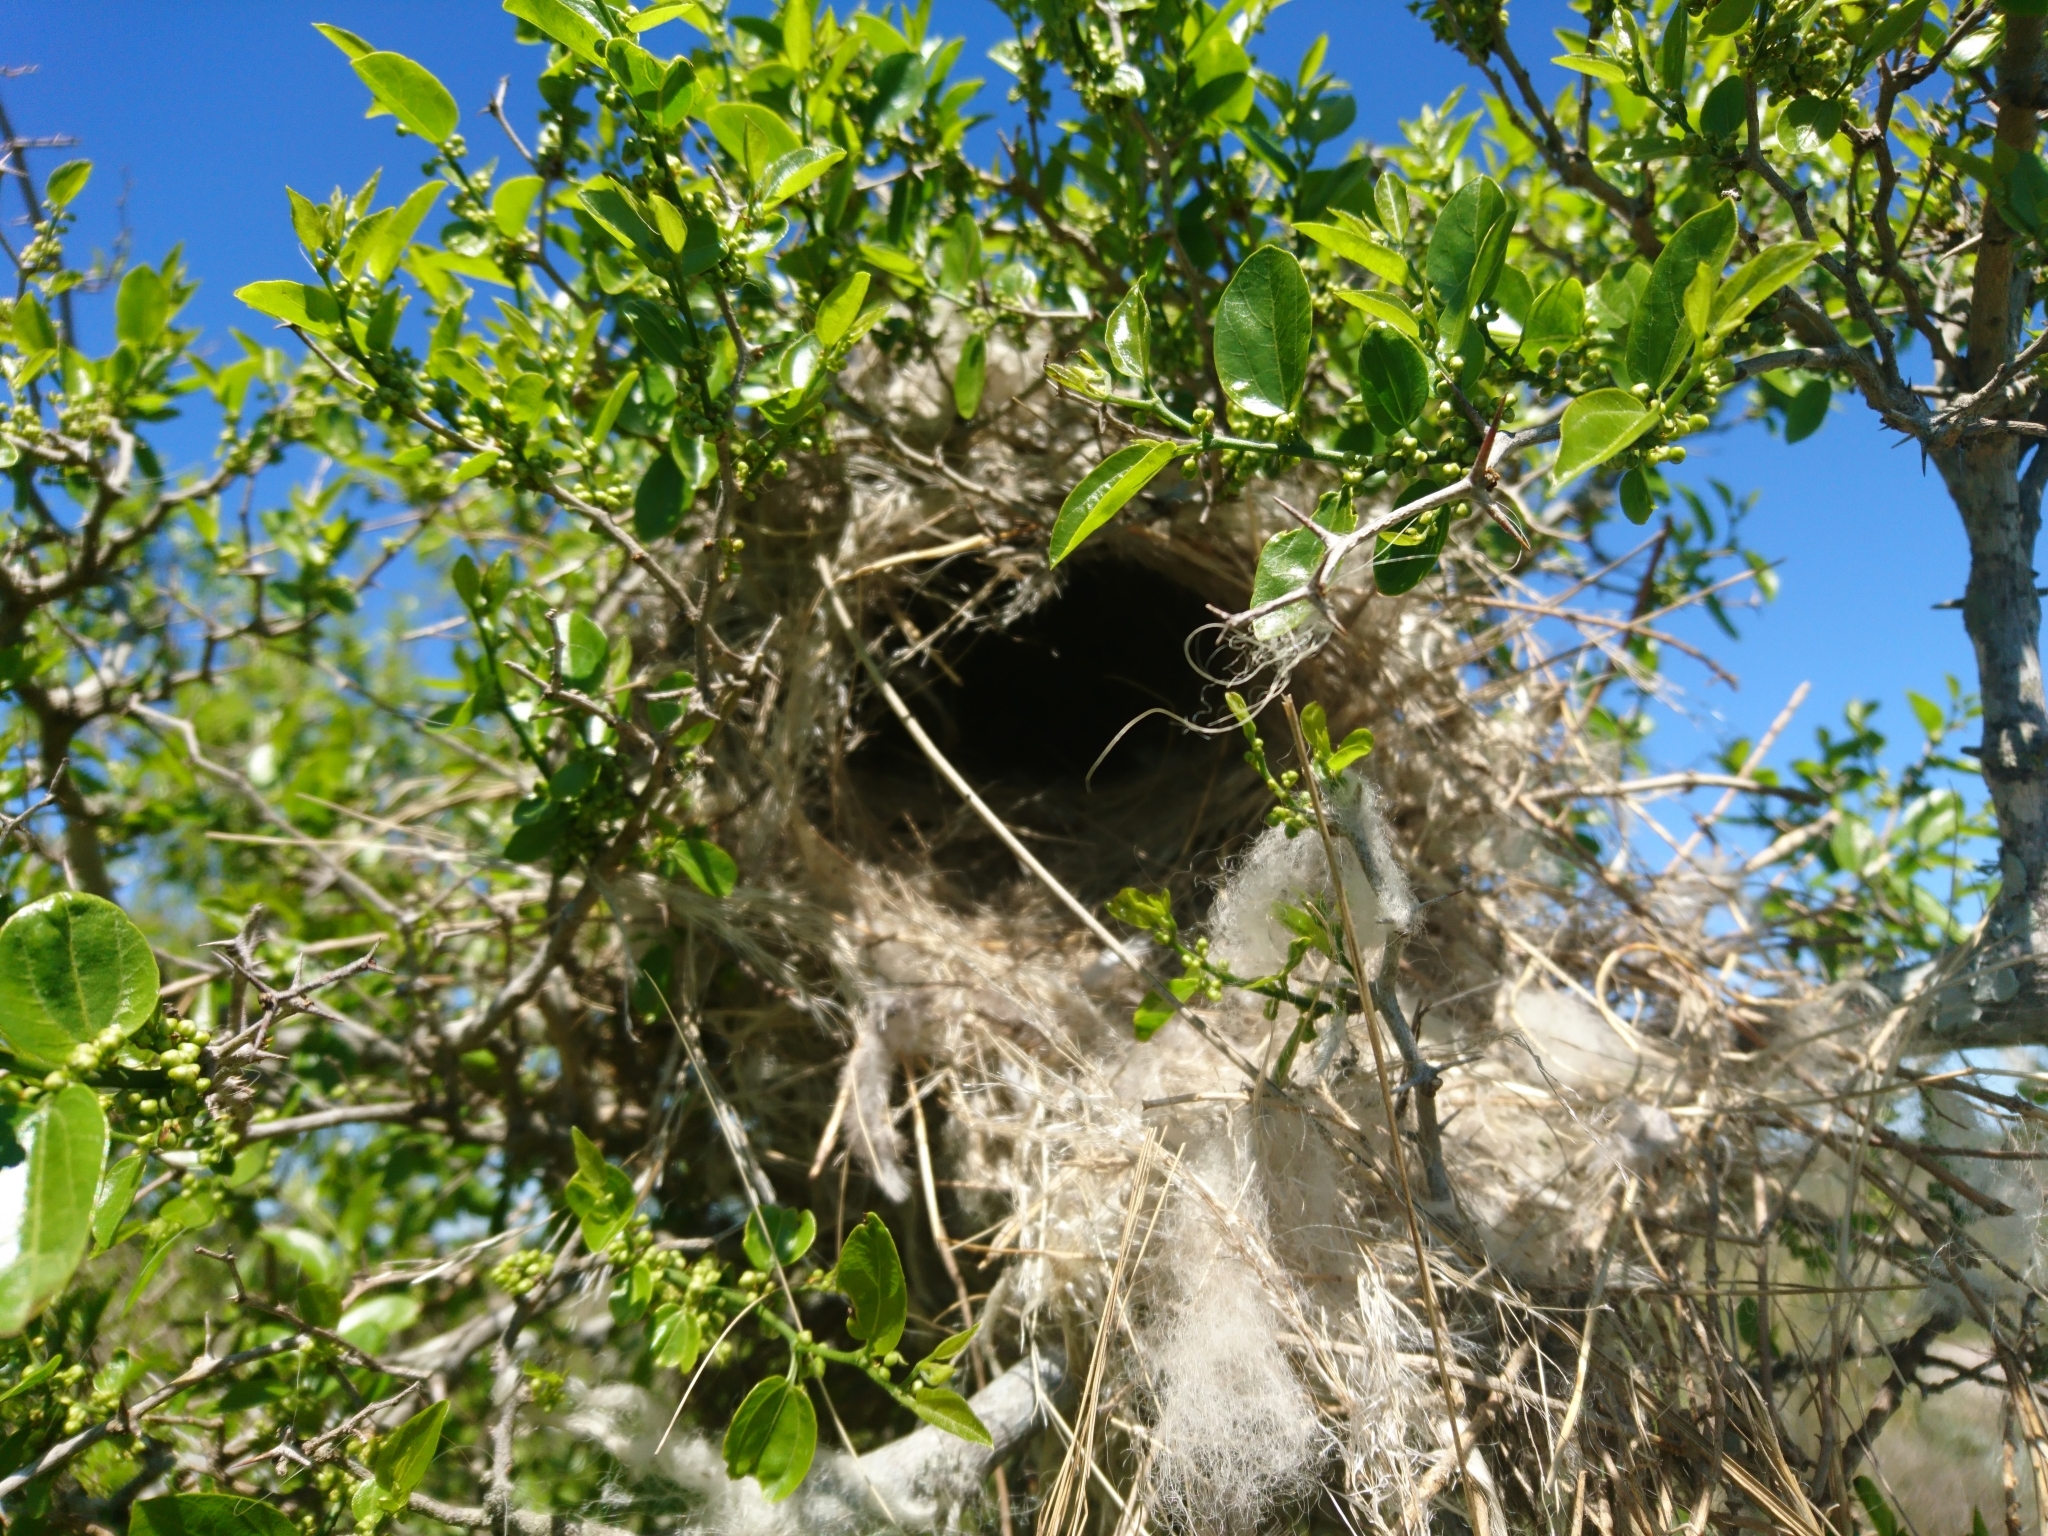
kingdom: Animalia
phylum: Chordata
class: Aves
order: Passeriformes
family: Tyrannidae
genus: Pitangus
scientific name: Pitangus sulphuratus
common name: Great kiskadee
